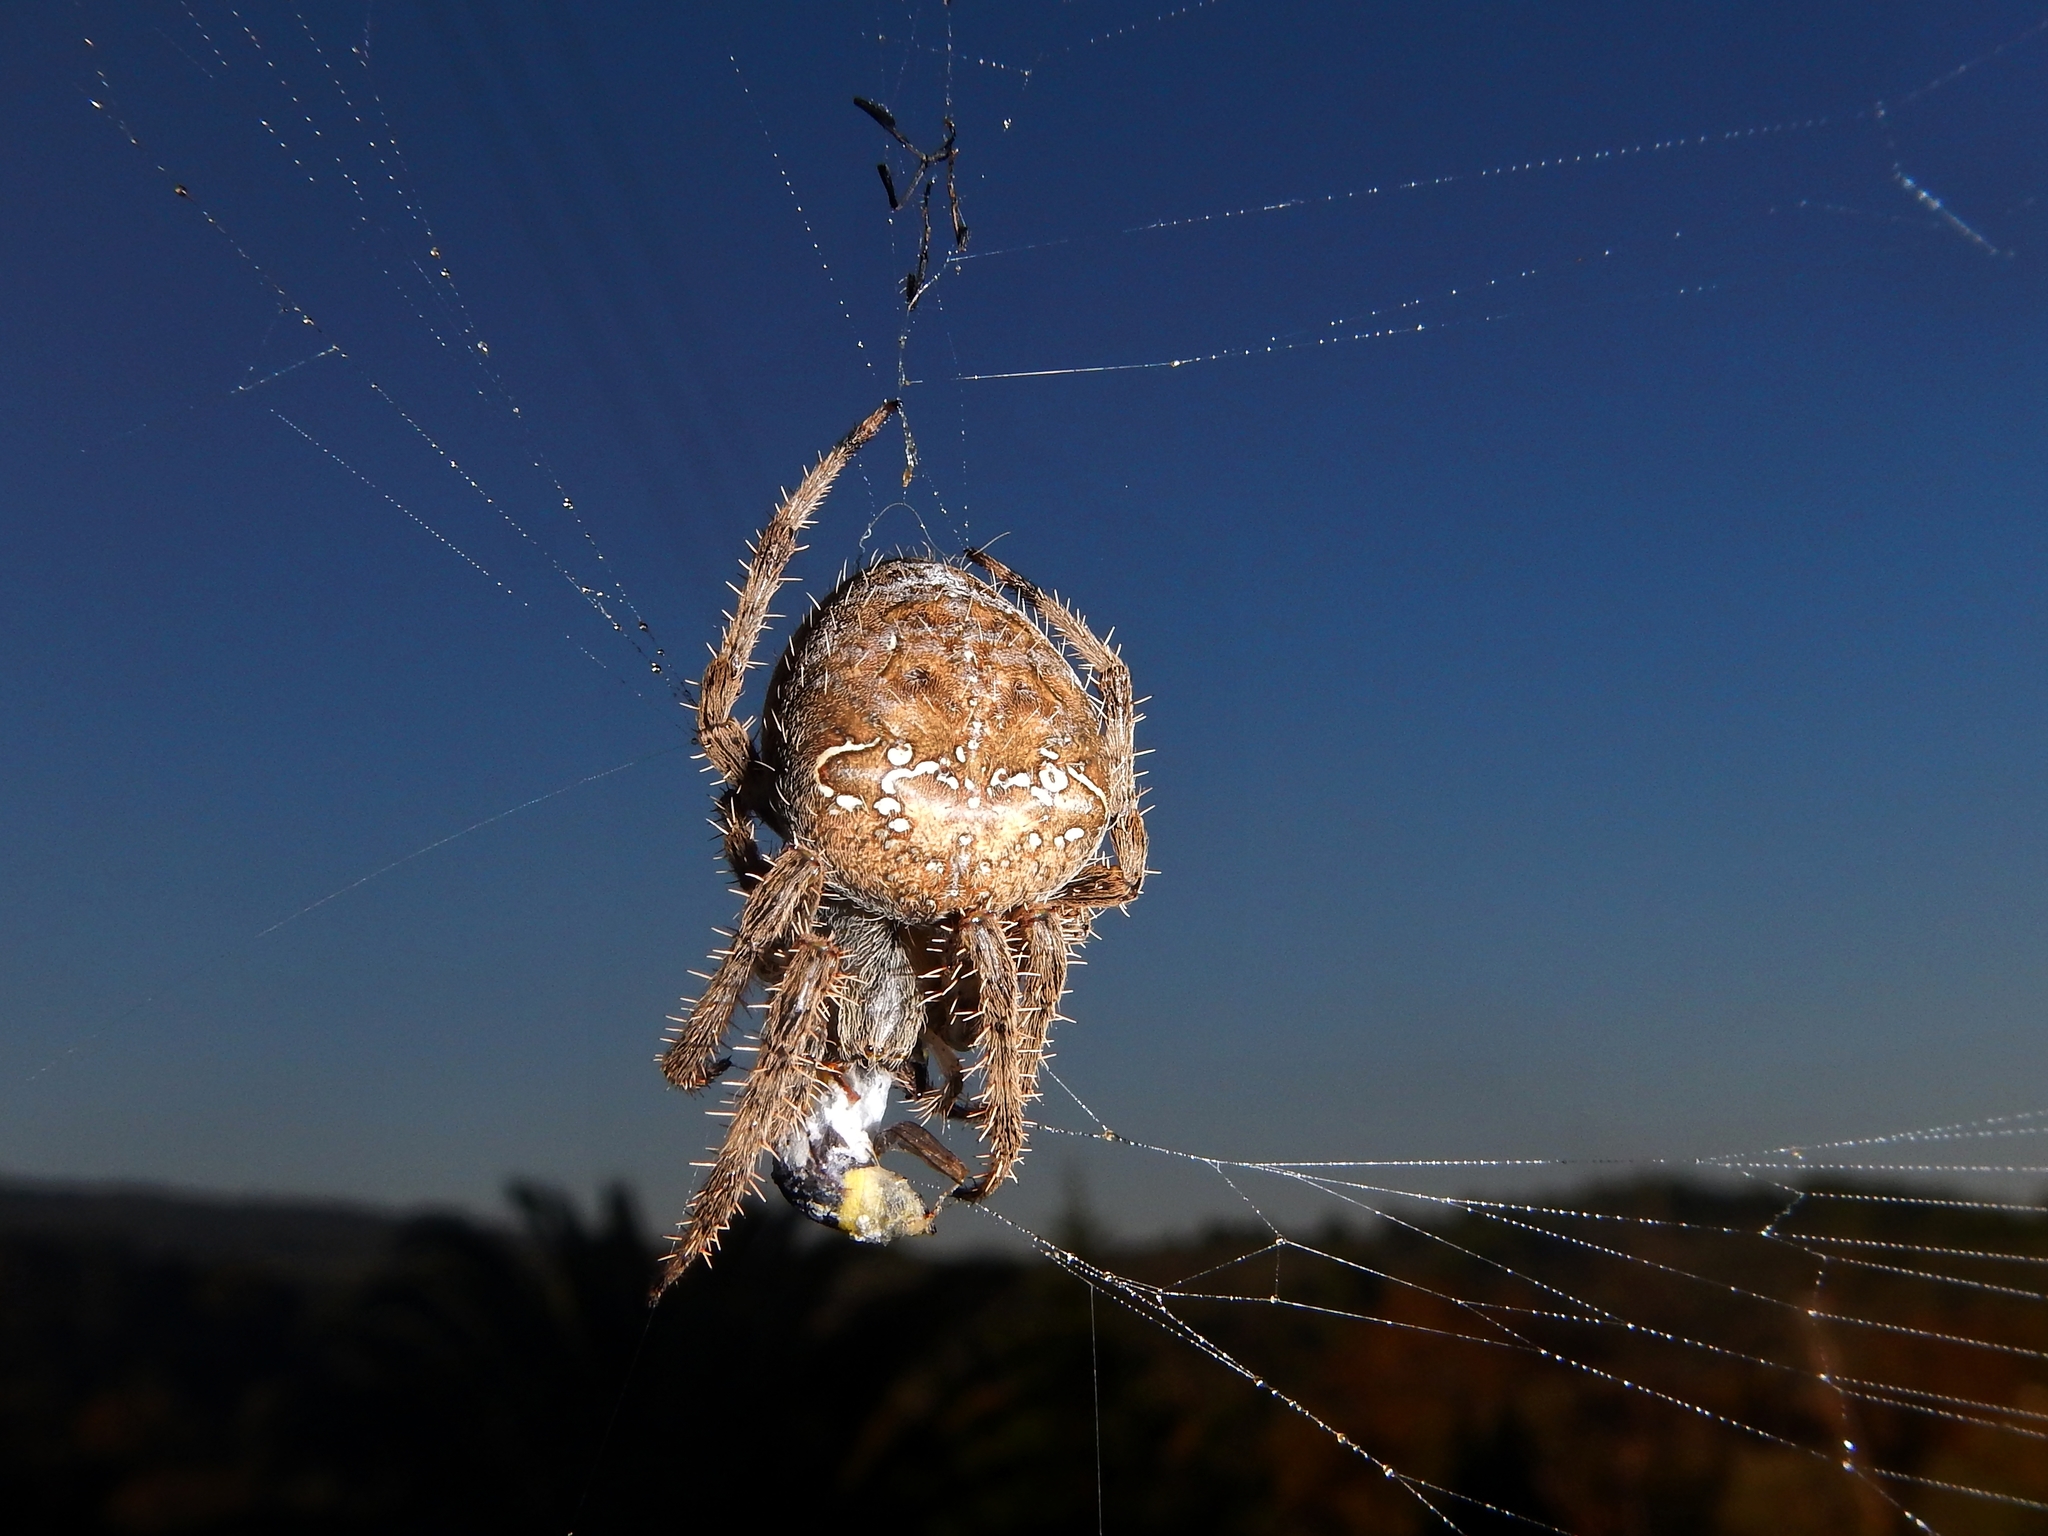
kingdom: Animalia
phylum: Arthropoda
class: Arachnida
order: Araneae
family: Araneidae
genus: Araneus
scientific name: Araneus diadematus
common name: Cross orbweaver
